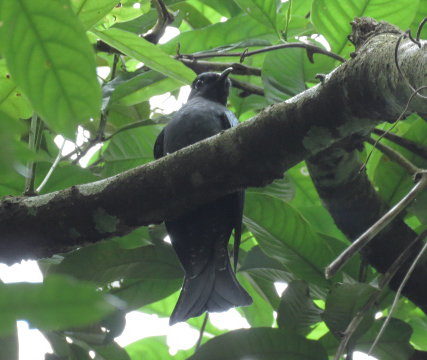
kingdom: Animalia
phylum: Chordata
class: Aves
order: Cuculiformes
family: Cuculidae
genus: Surniculus
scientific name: Surniculus lugubris
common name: Square-tailed drongo-cuckoo
